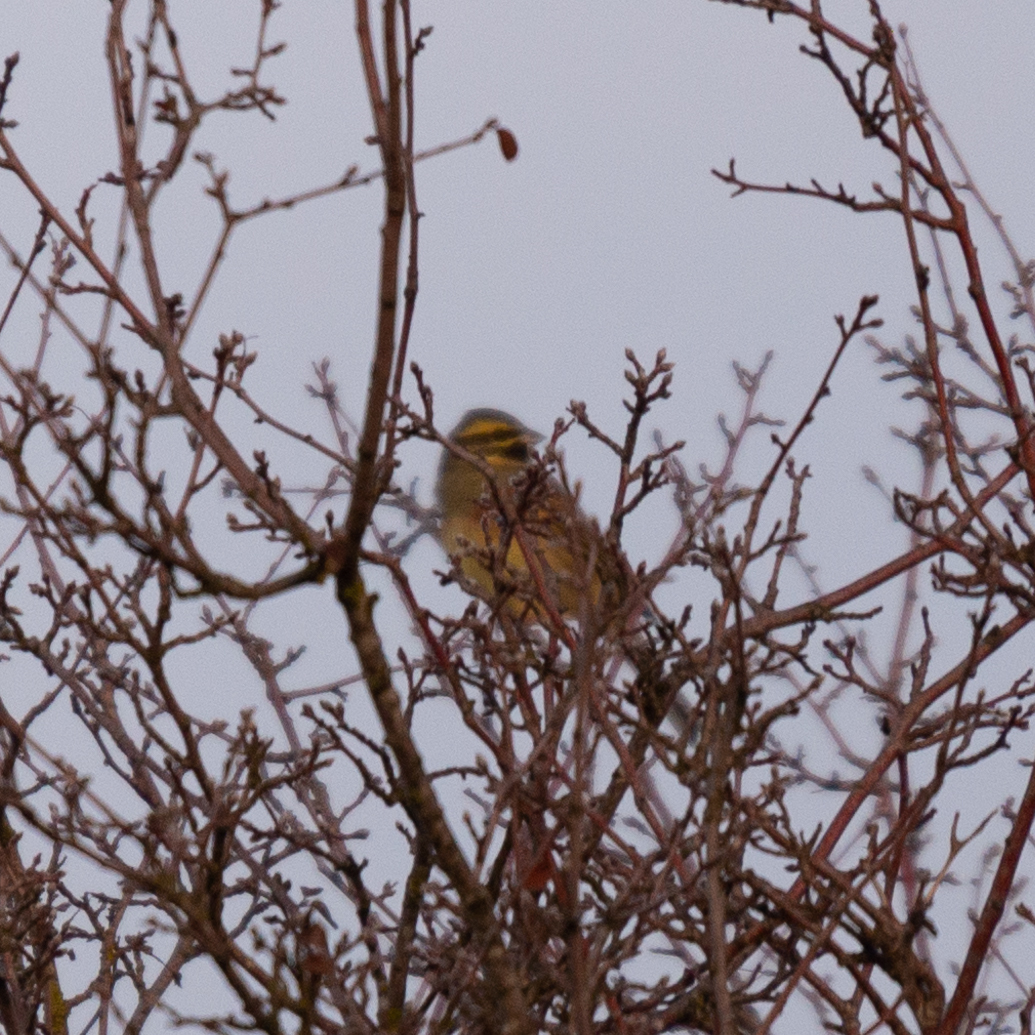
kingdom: Animalia
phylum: Chordata
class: Aves
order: Passeriformes
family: Emberizidae
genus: Emberiza
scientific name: Emberiza cirlus
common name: Cirl bunting
